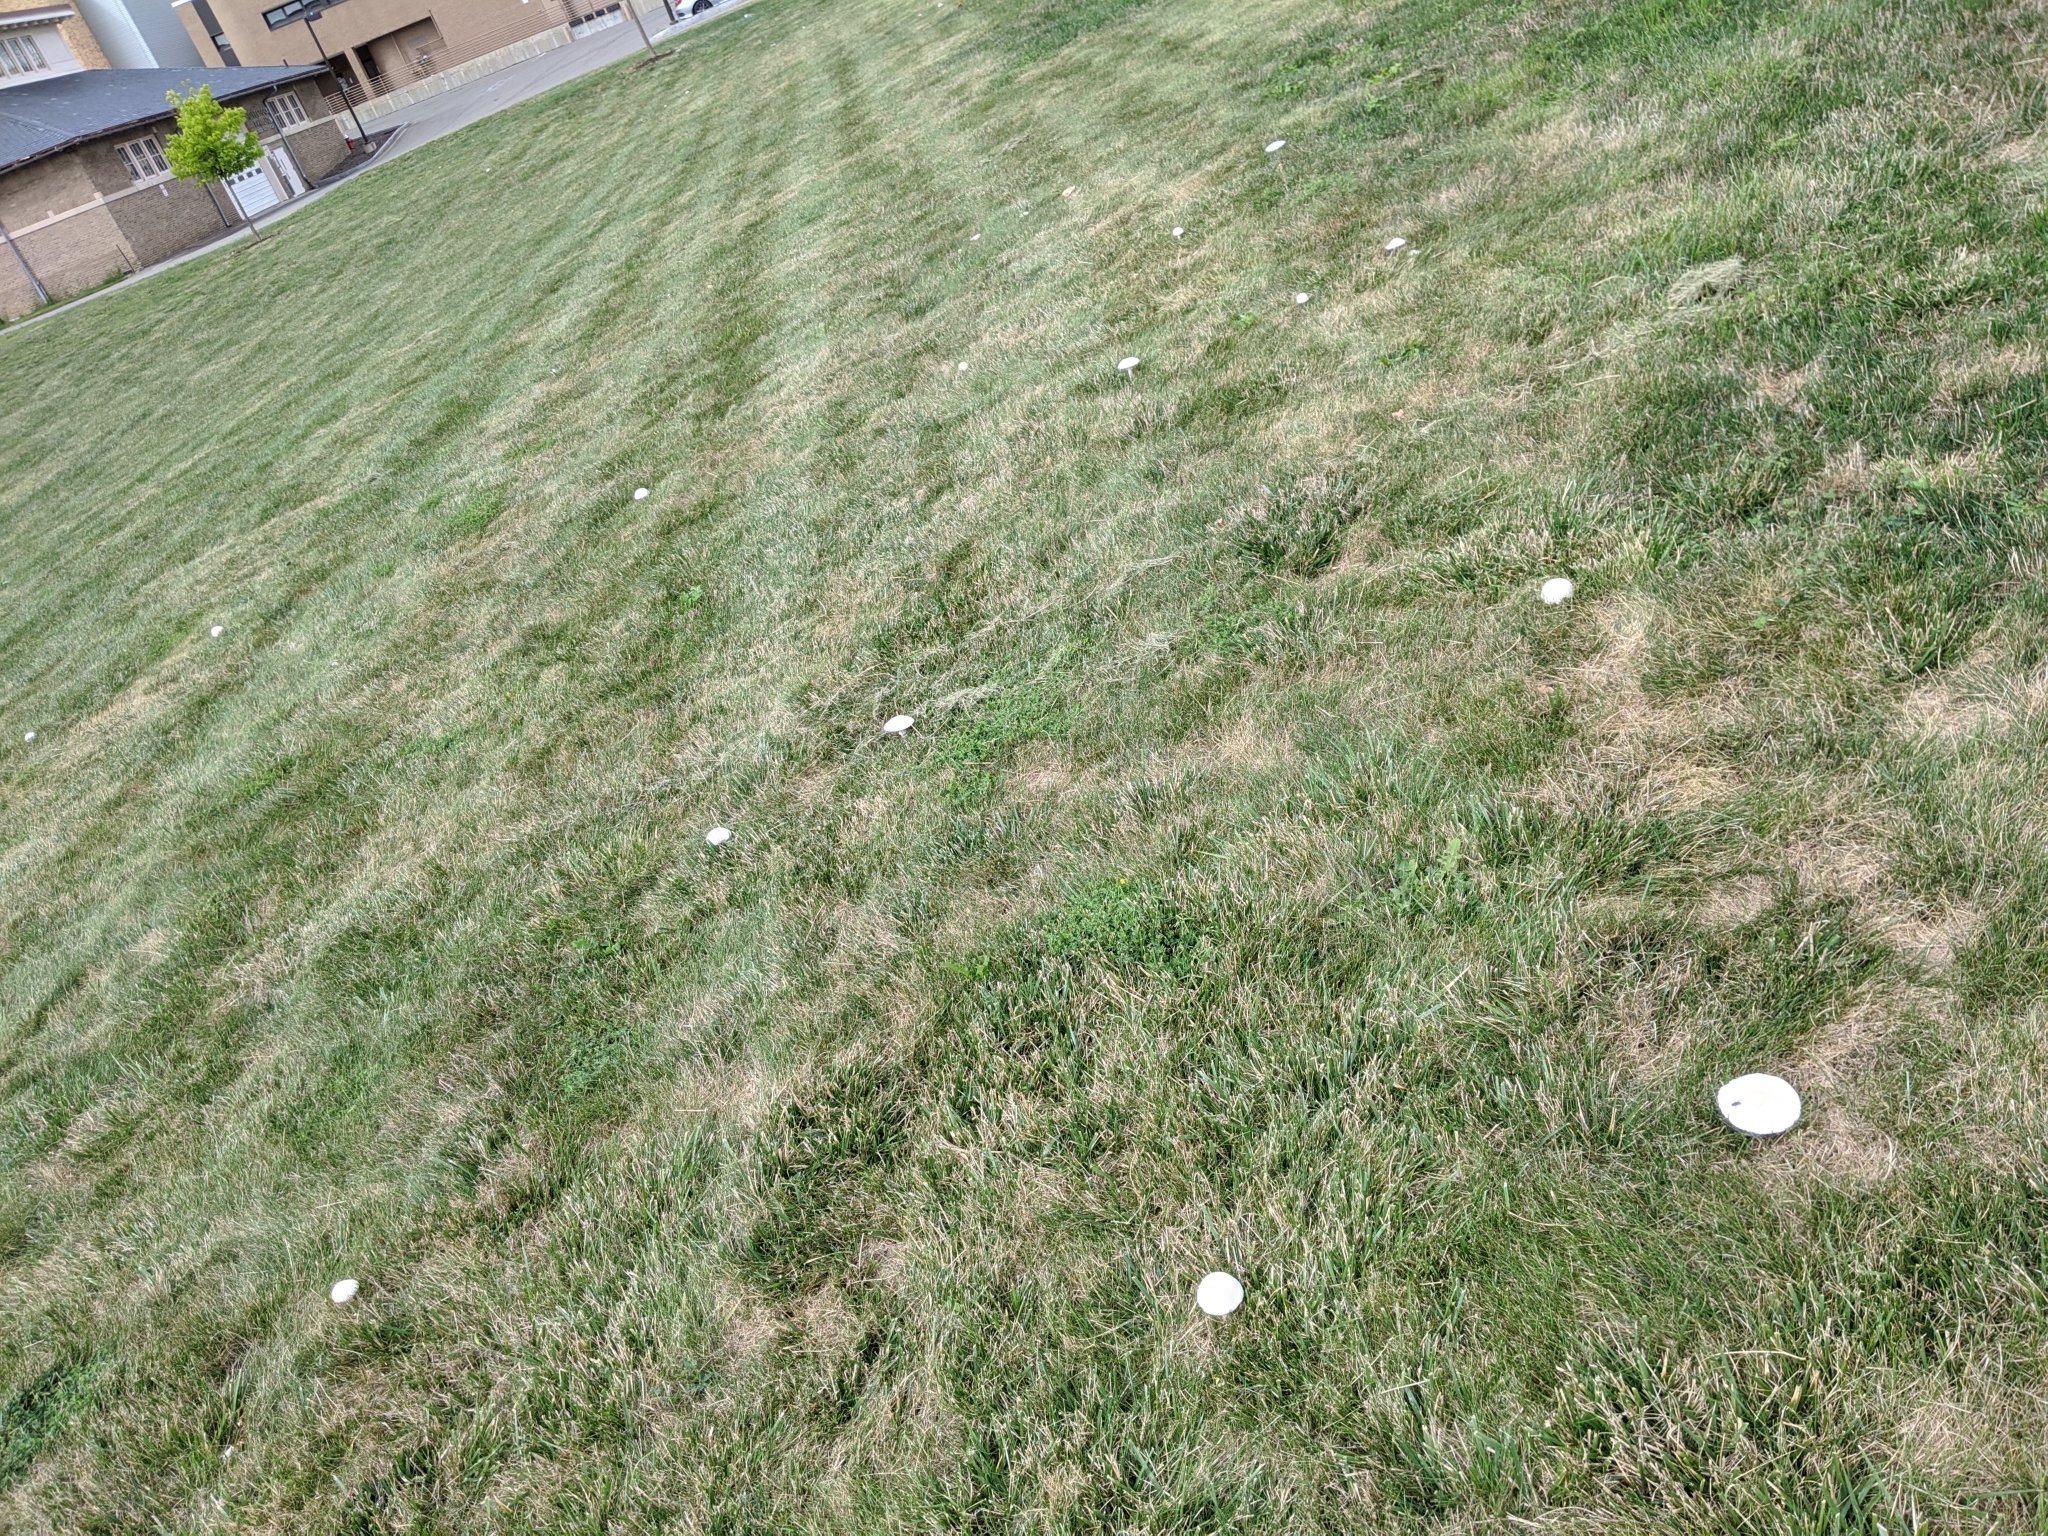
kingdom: Fungi
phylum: Basidiomycota
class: Agaricomycetes
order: Agaricales
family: Agaricaceae
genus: Leucoagaricus
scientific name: Leucoagaricus leucothites
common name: White dapperling
